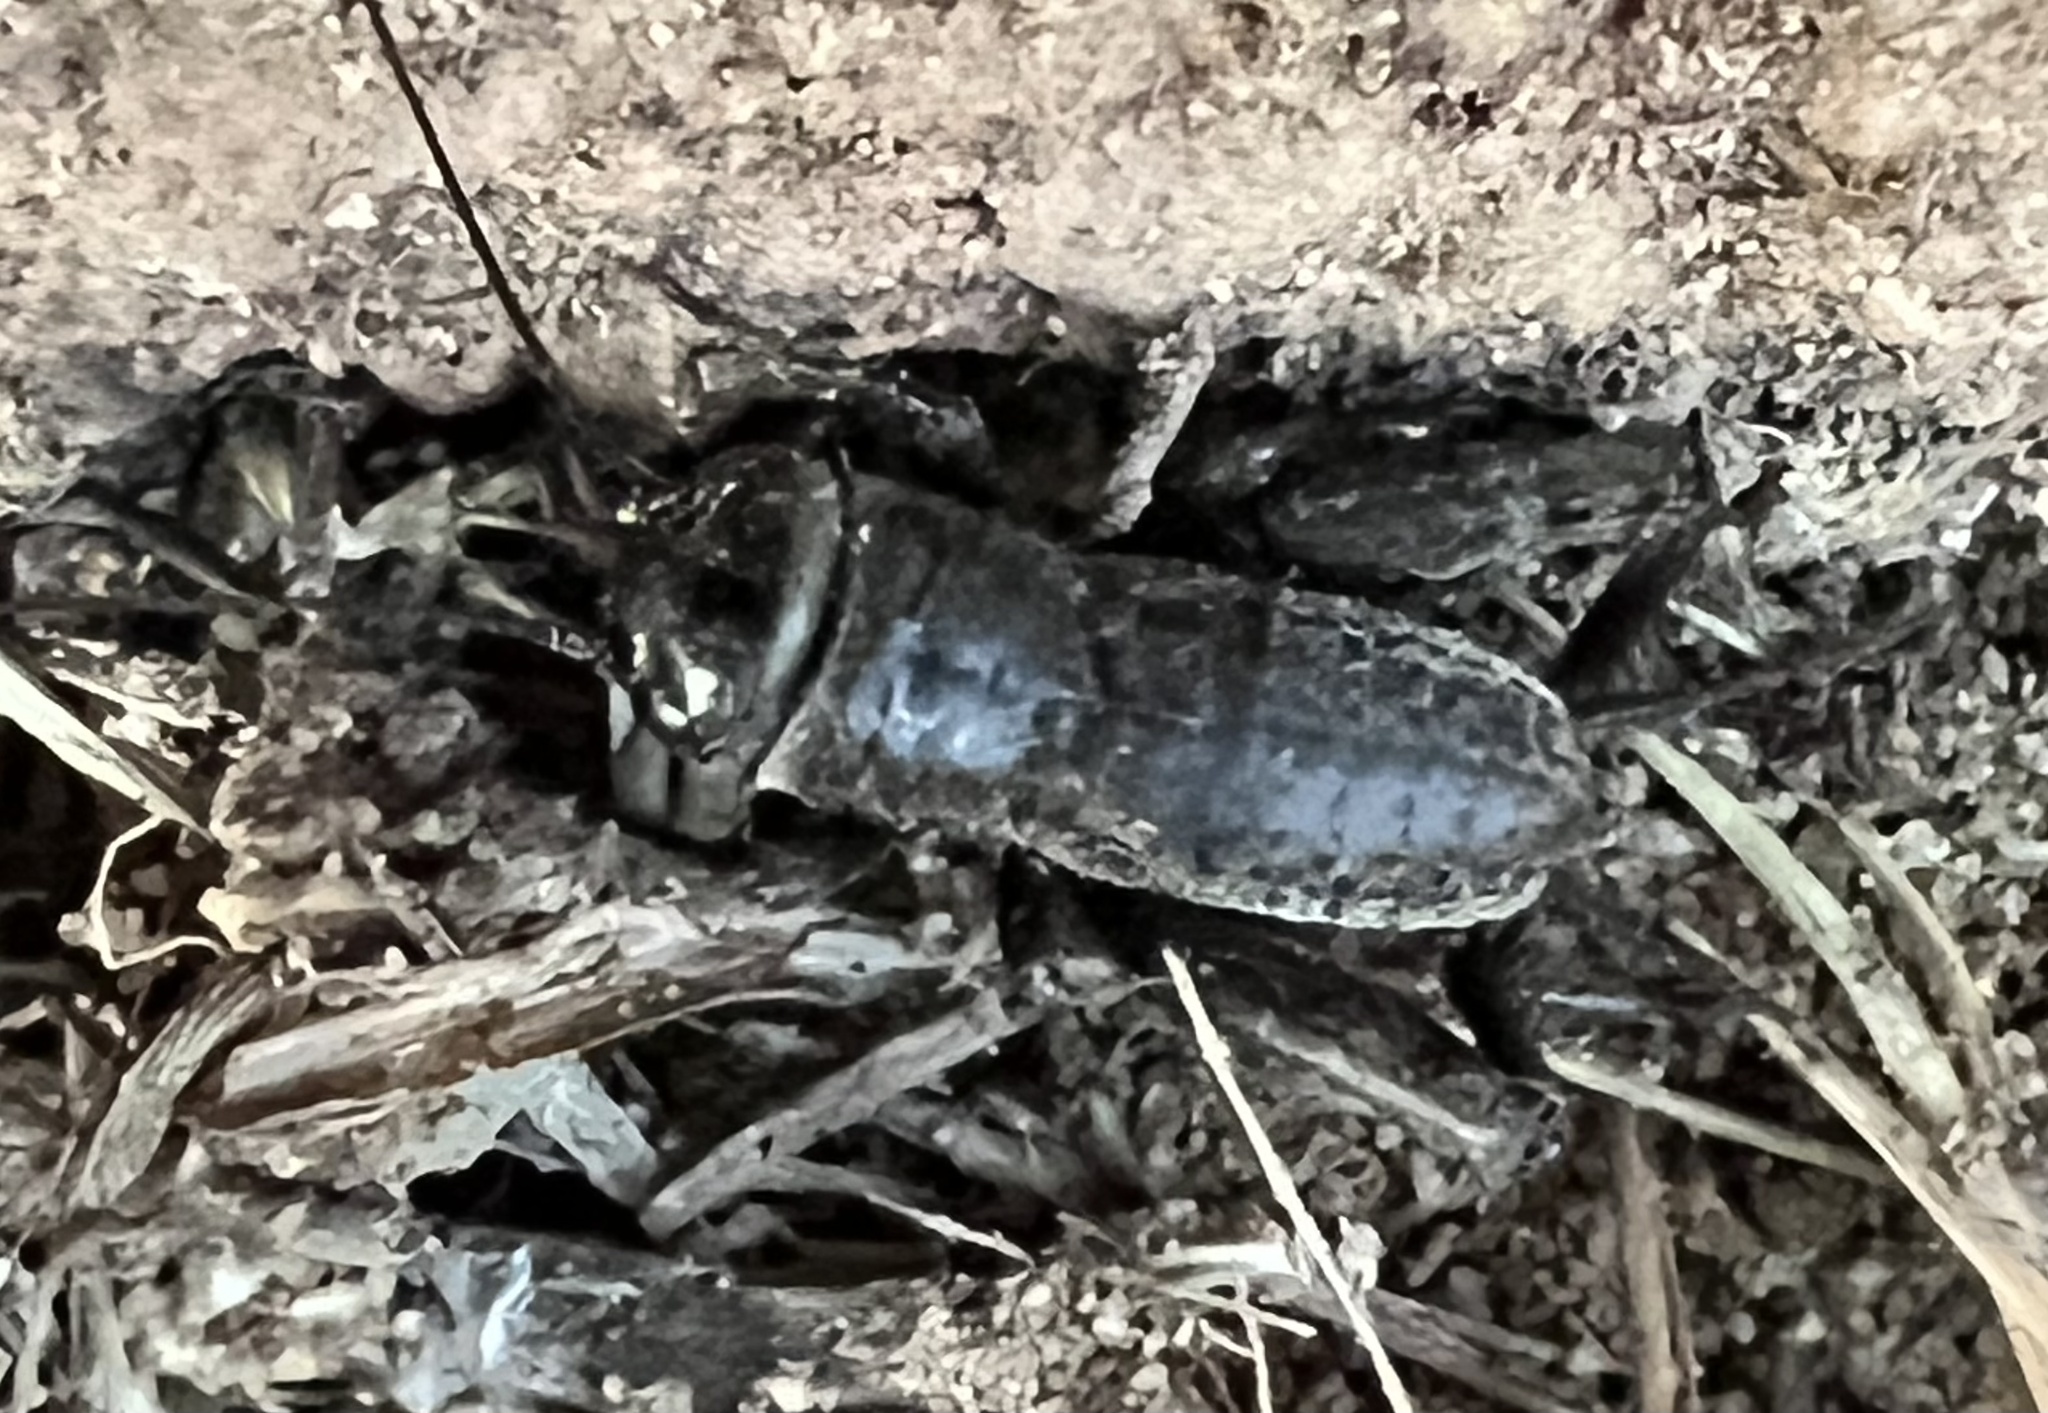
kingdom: Animalia
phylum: Arthropoda
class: Insecta
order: Orthoptera
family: Gryllidae
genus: Gryllus
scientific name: Gryllus
